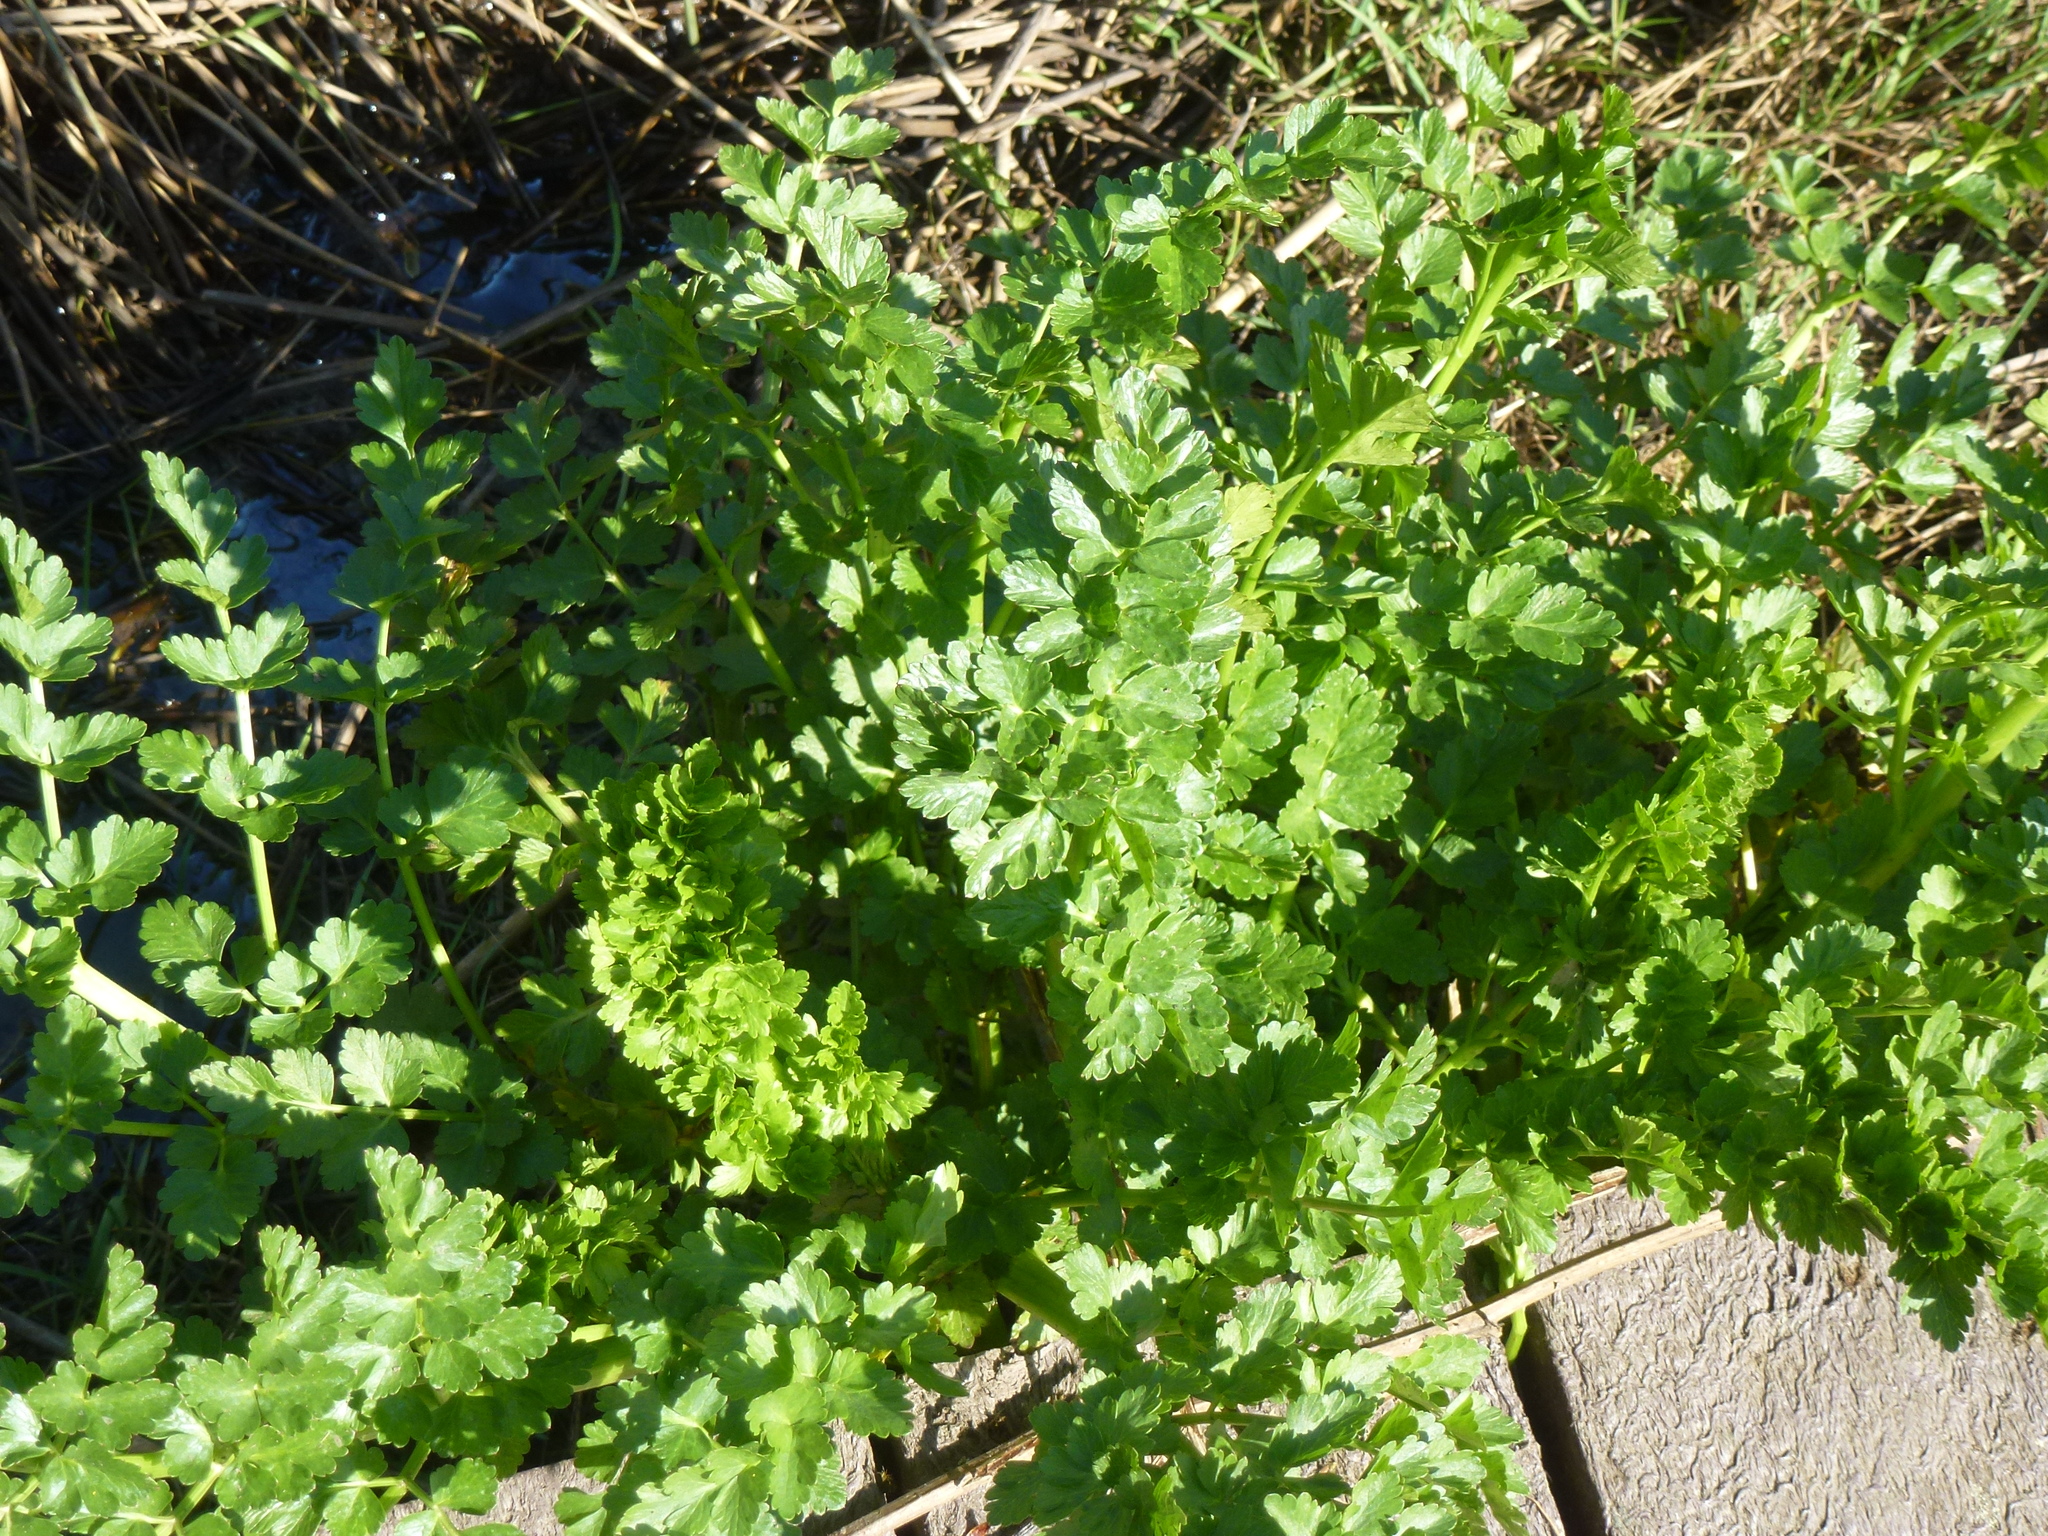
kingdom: Plantae
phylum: Tracheophyta
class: Magnoliopsida
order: Apiales
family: Apiaceae
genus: Oenanthe
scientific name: Oenanthe crocata
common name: Hemlock water-dropwort
